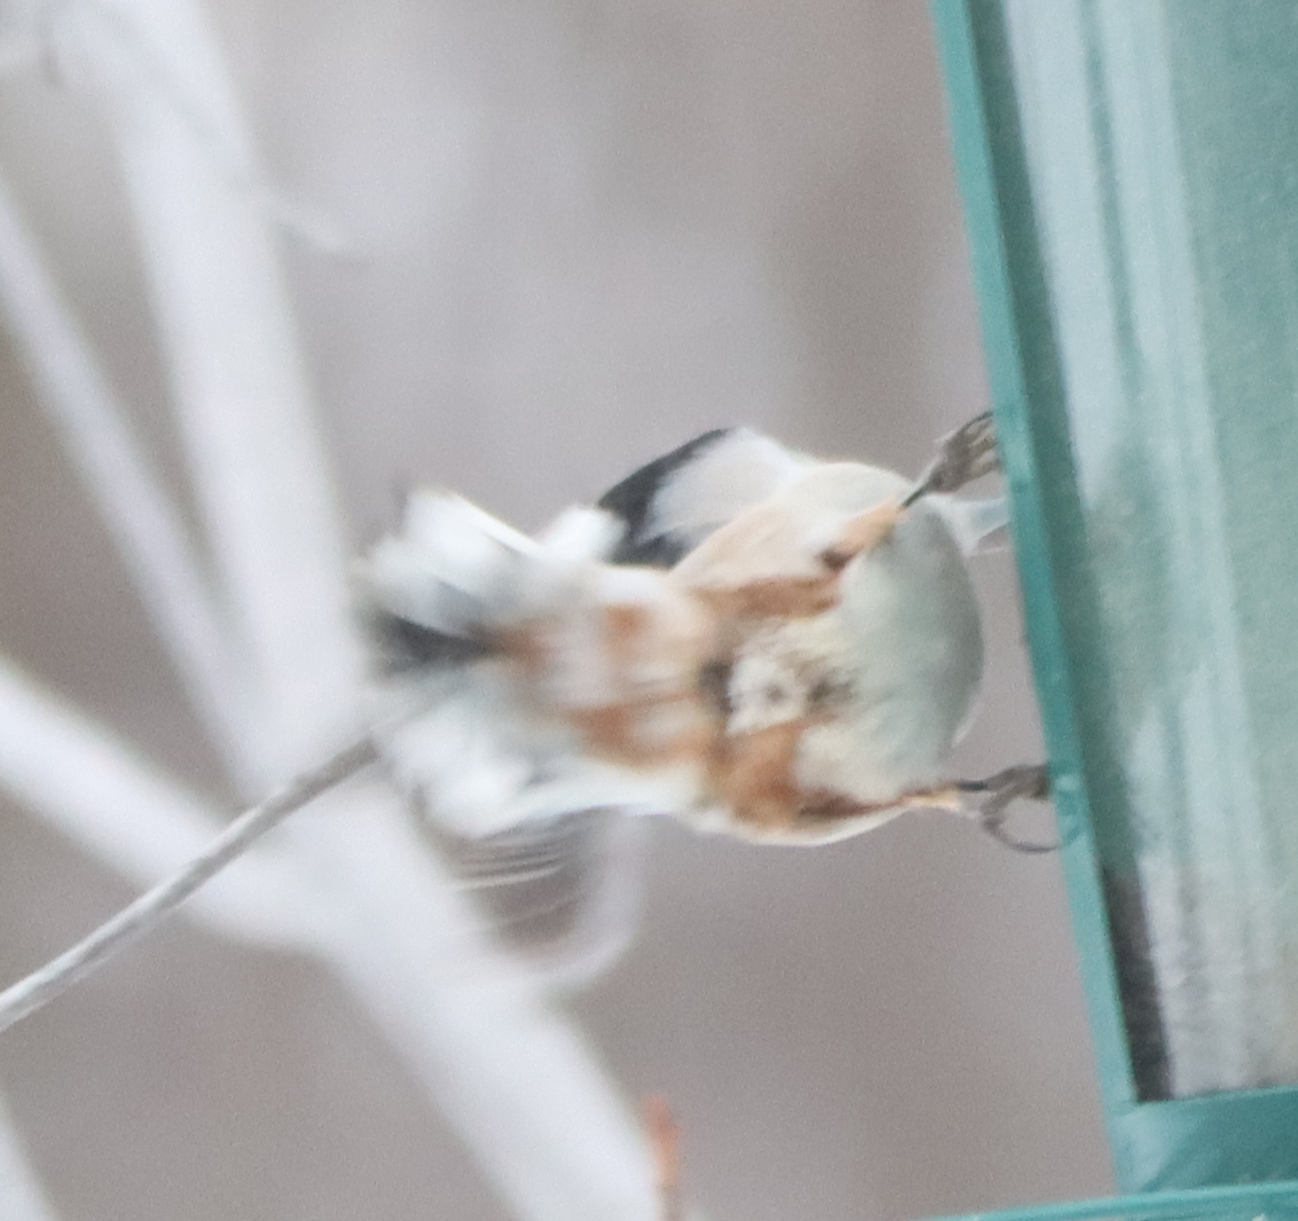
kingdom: Animalia
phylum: Chordata
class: Aves
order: Passeriformes
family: Sittidae
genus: Sitta
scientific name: Sitta carolinensis
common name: White-breasted nuthatch
